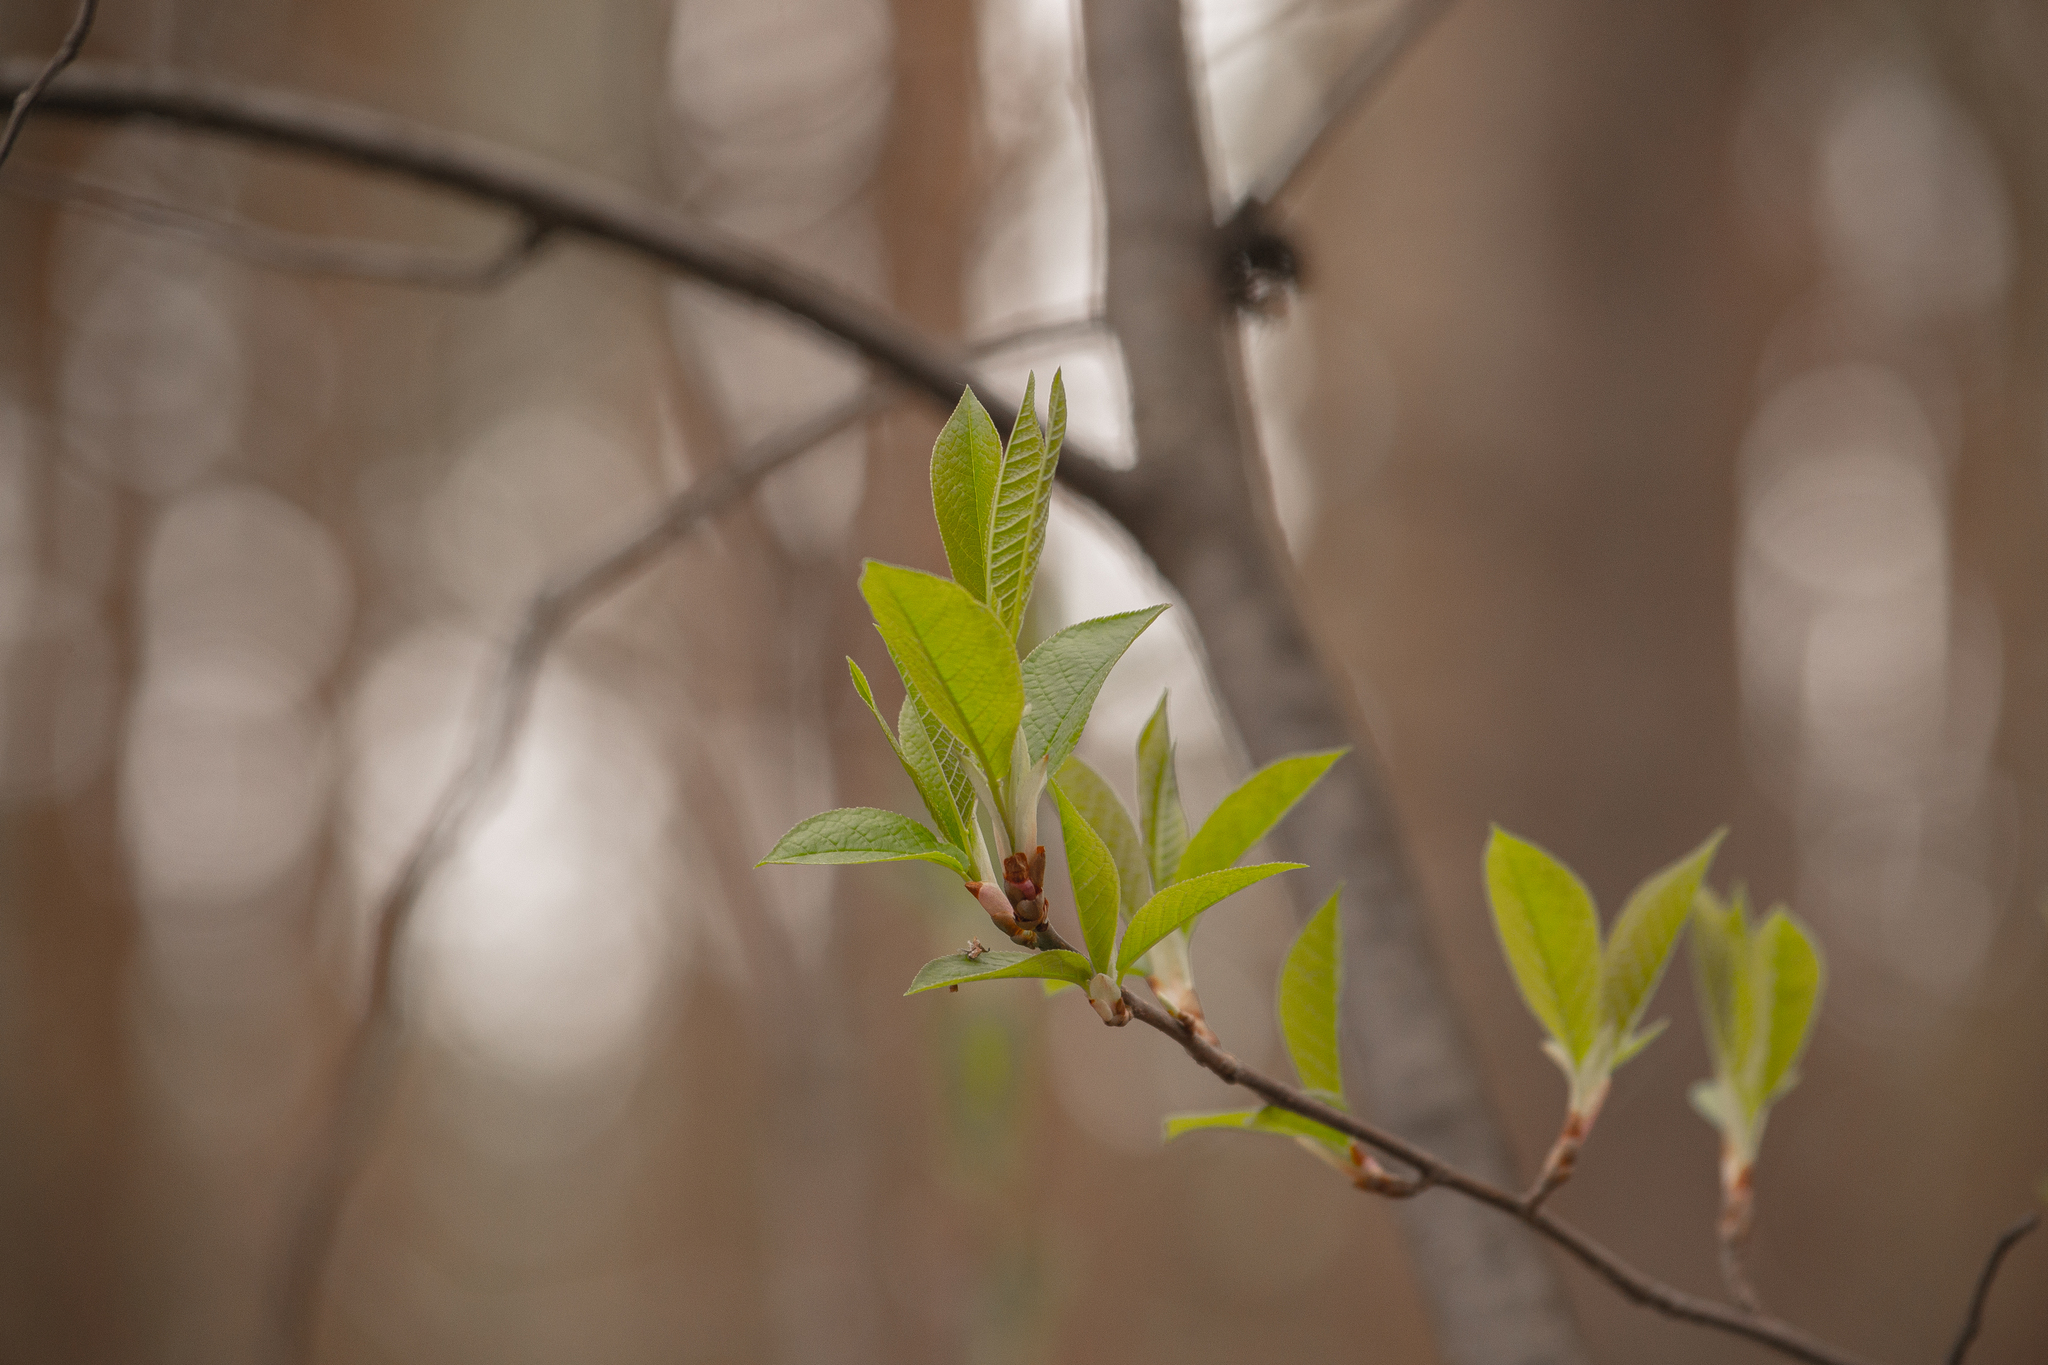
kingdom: Plantae
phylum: Tracheophyta
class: Magnoliopsida
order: Rosales
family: Rosaceae
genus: Prunus
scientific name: Prunus padus
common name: Bird cherry
